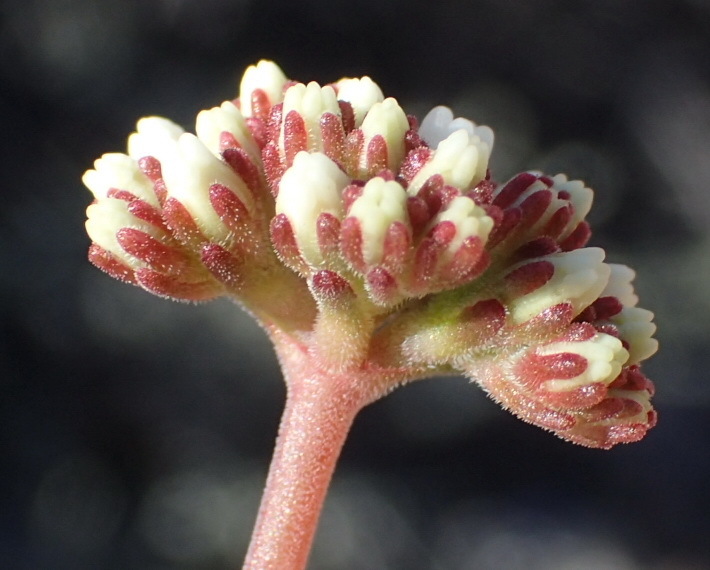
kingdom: Plantae
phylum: Tracheophyta
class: Magnoliopsida
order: Saxifragales
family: Crassulaceae
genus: Crassula
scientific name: Crassula pubescens
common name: Jersey pigmyweed
